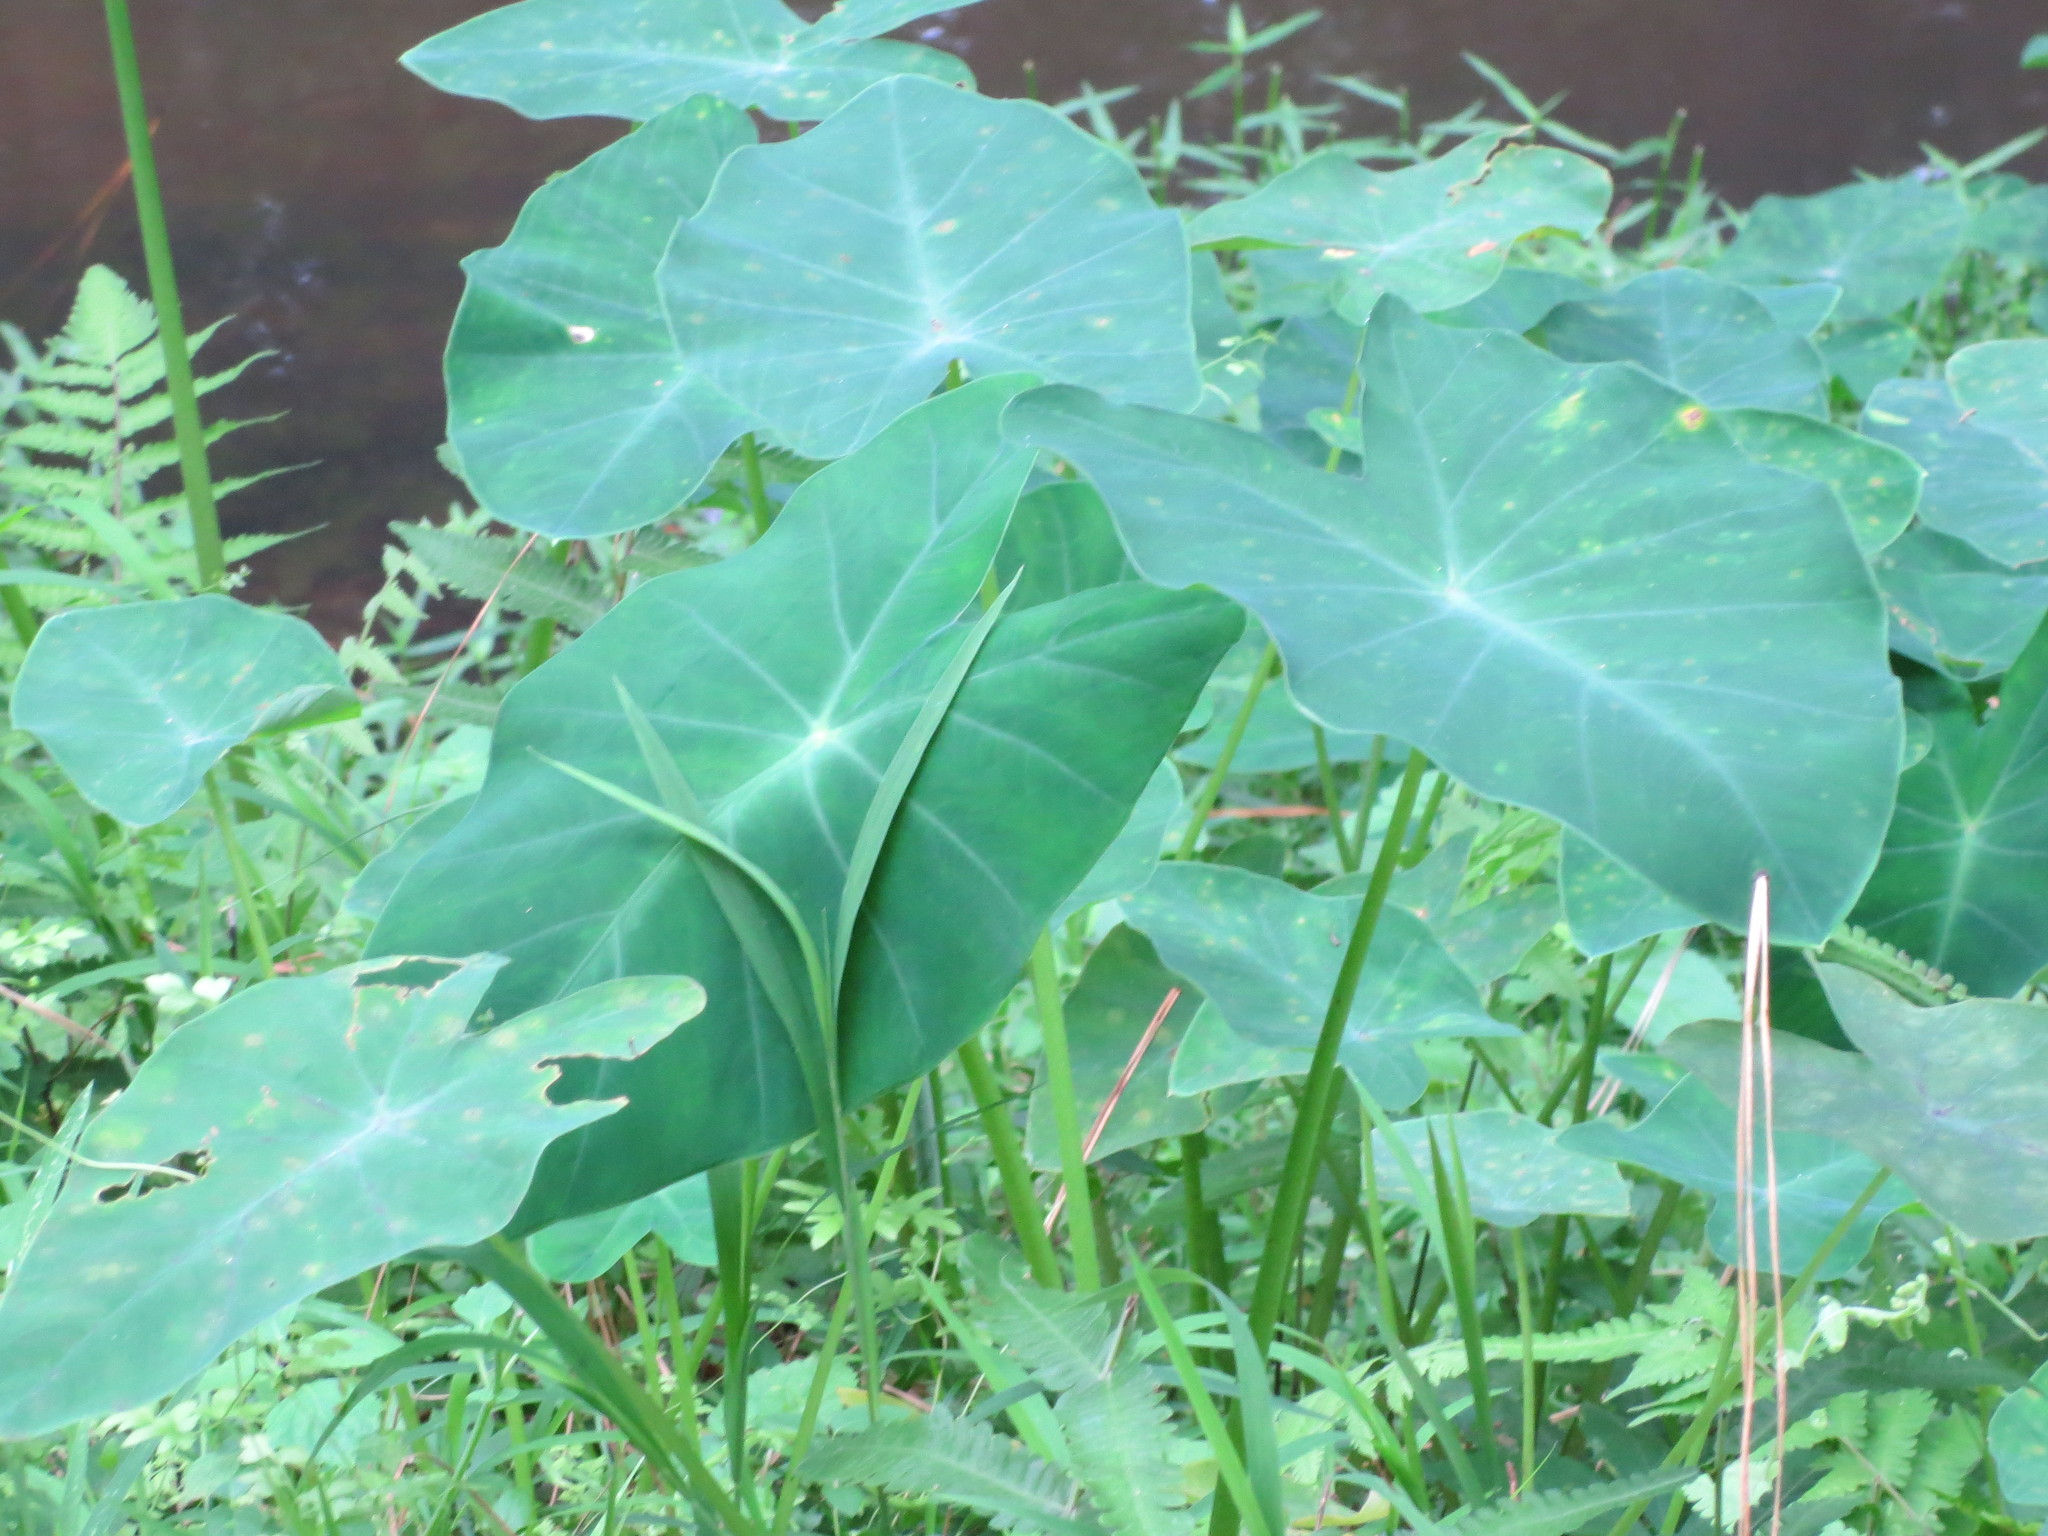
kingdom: Plantae
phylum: Tracheophyta
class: Liliopsida
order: Alismatales
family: Araceae
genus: Colocasia
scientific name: Colocasia esculenta
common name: Taro
